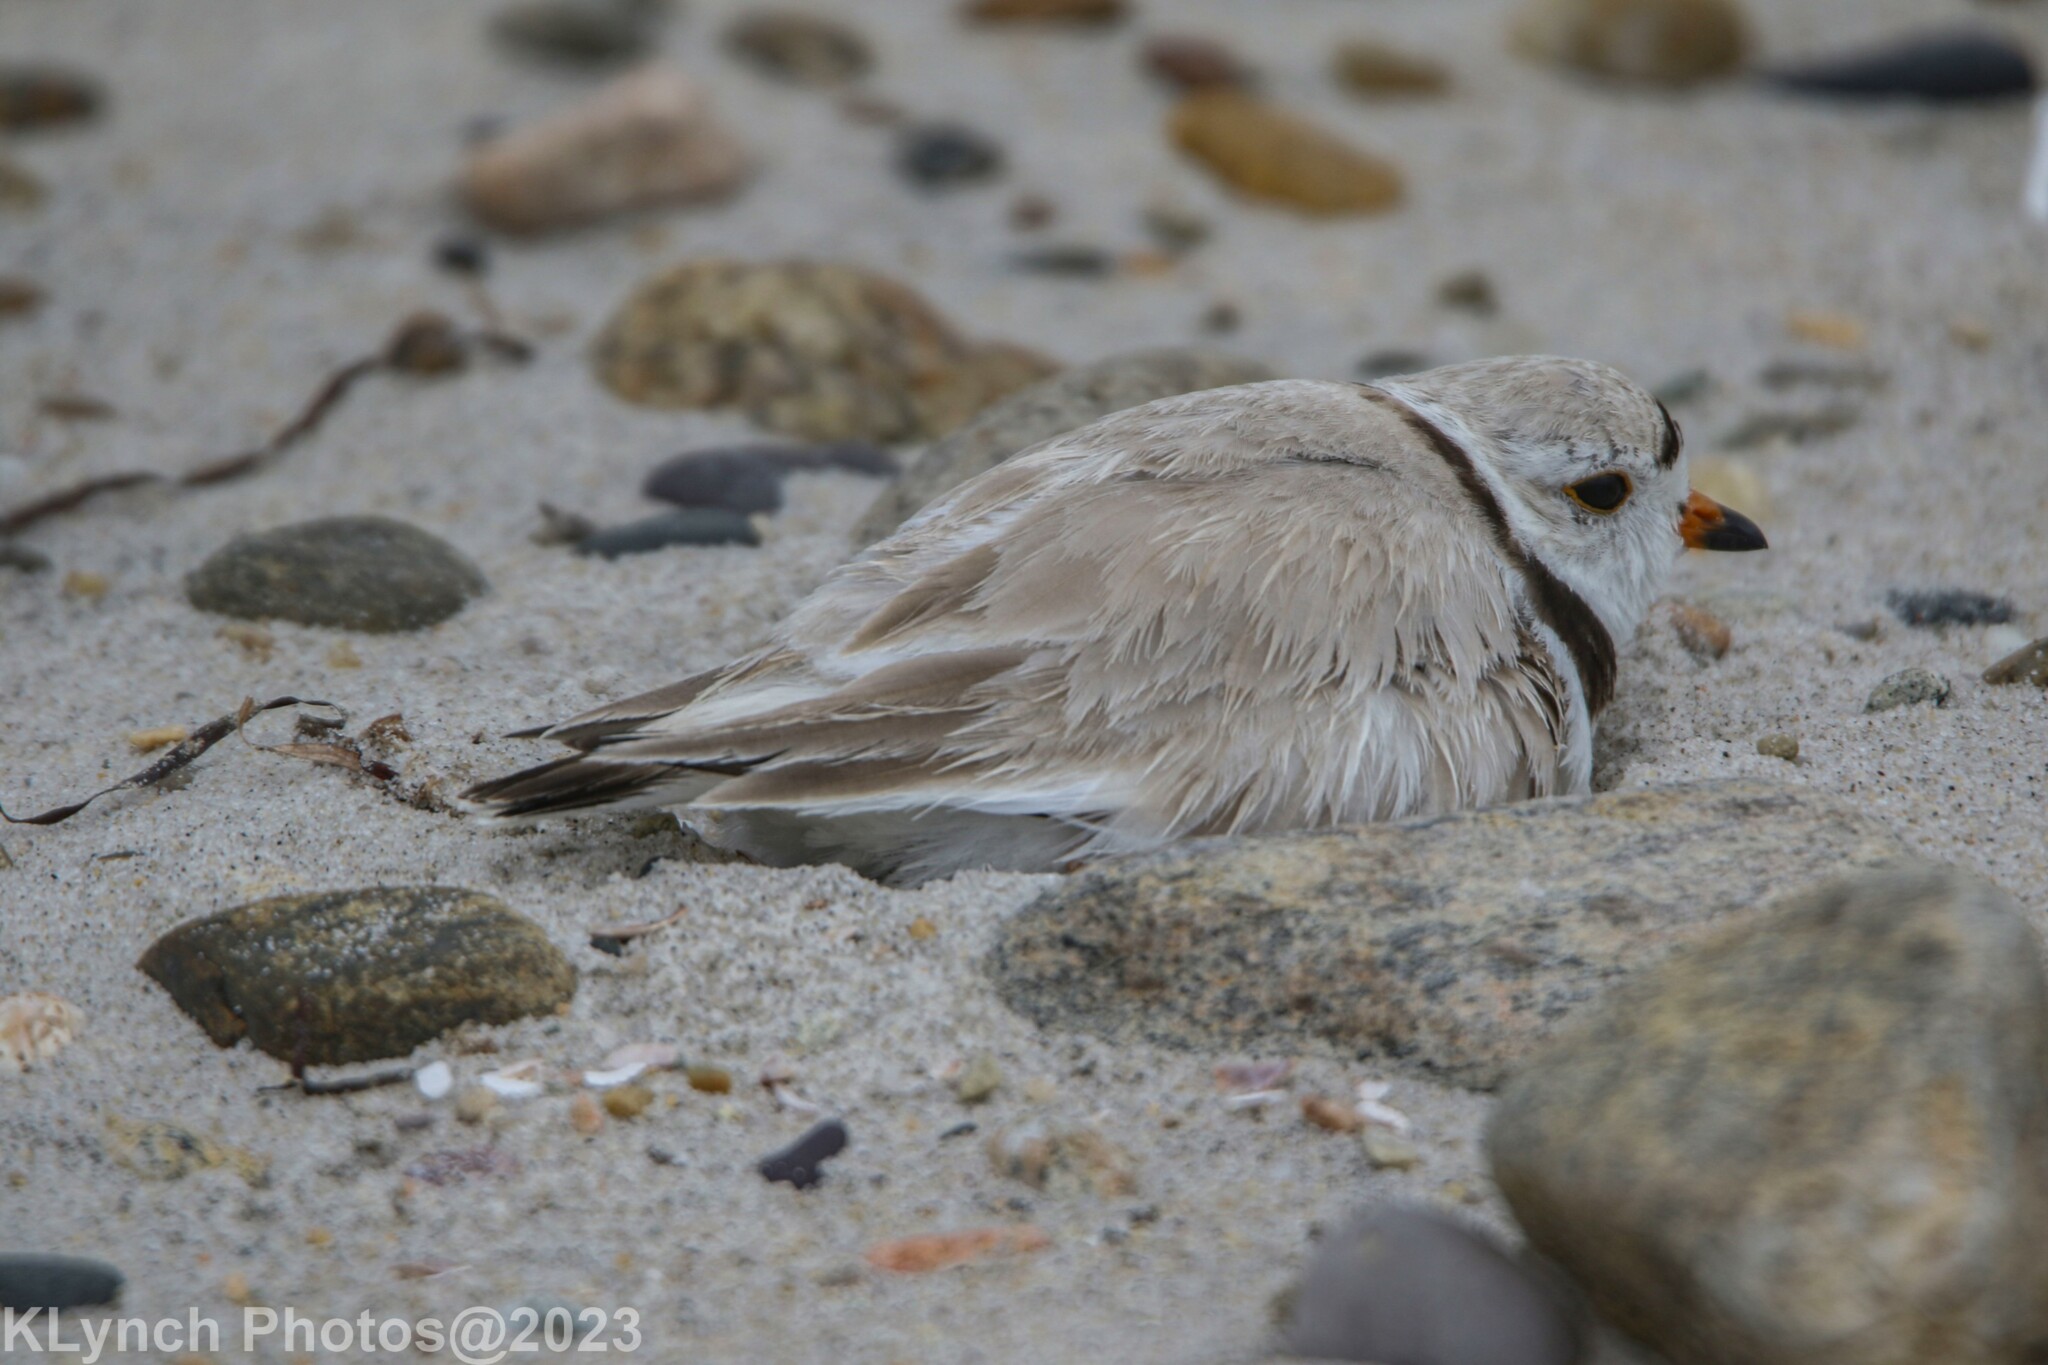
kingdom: Animalia
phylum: Chordata
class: Aves
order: Charadriiformes
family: Charadriidae
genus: Charadrius
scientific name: Charadrius melodus
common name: Piping plover
